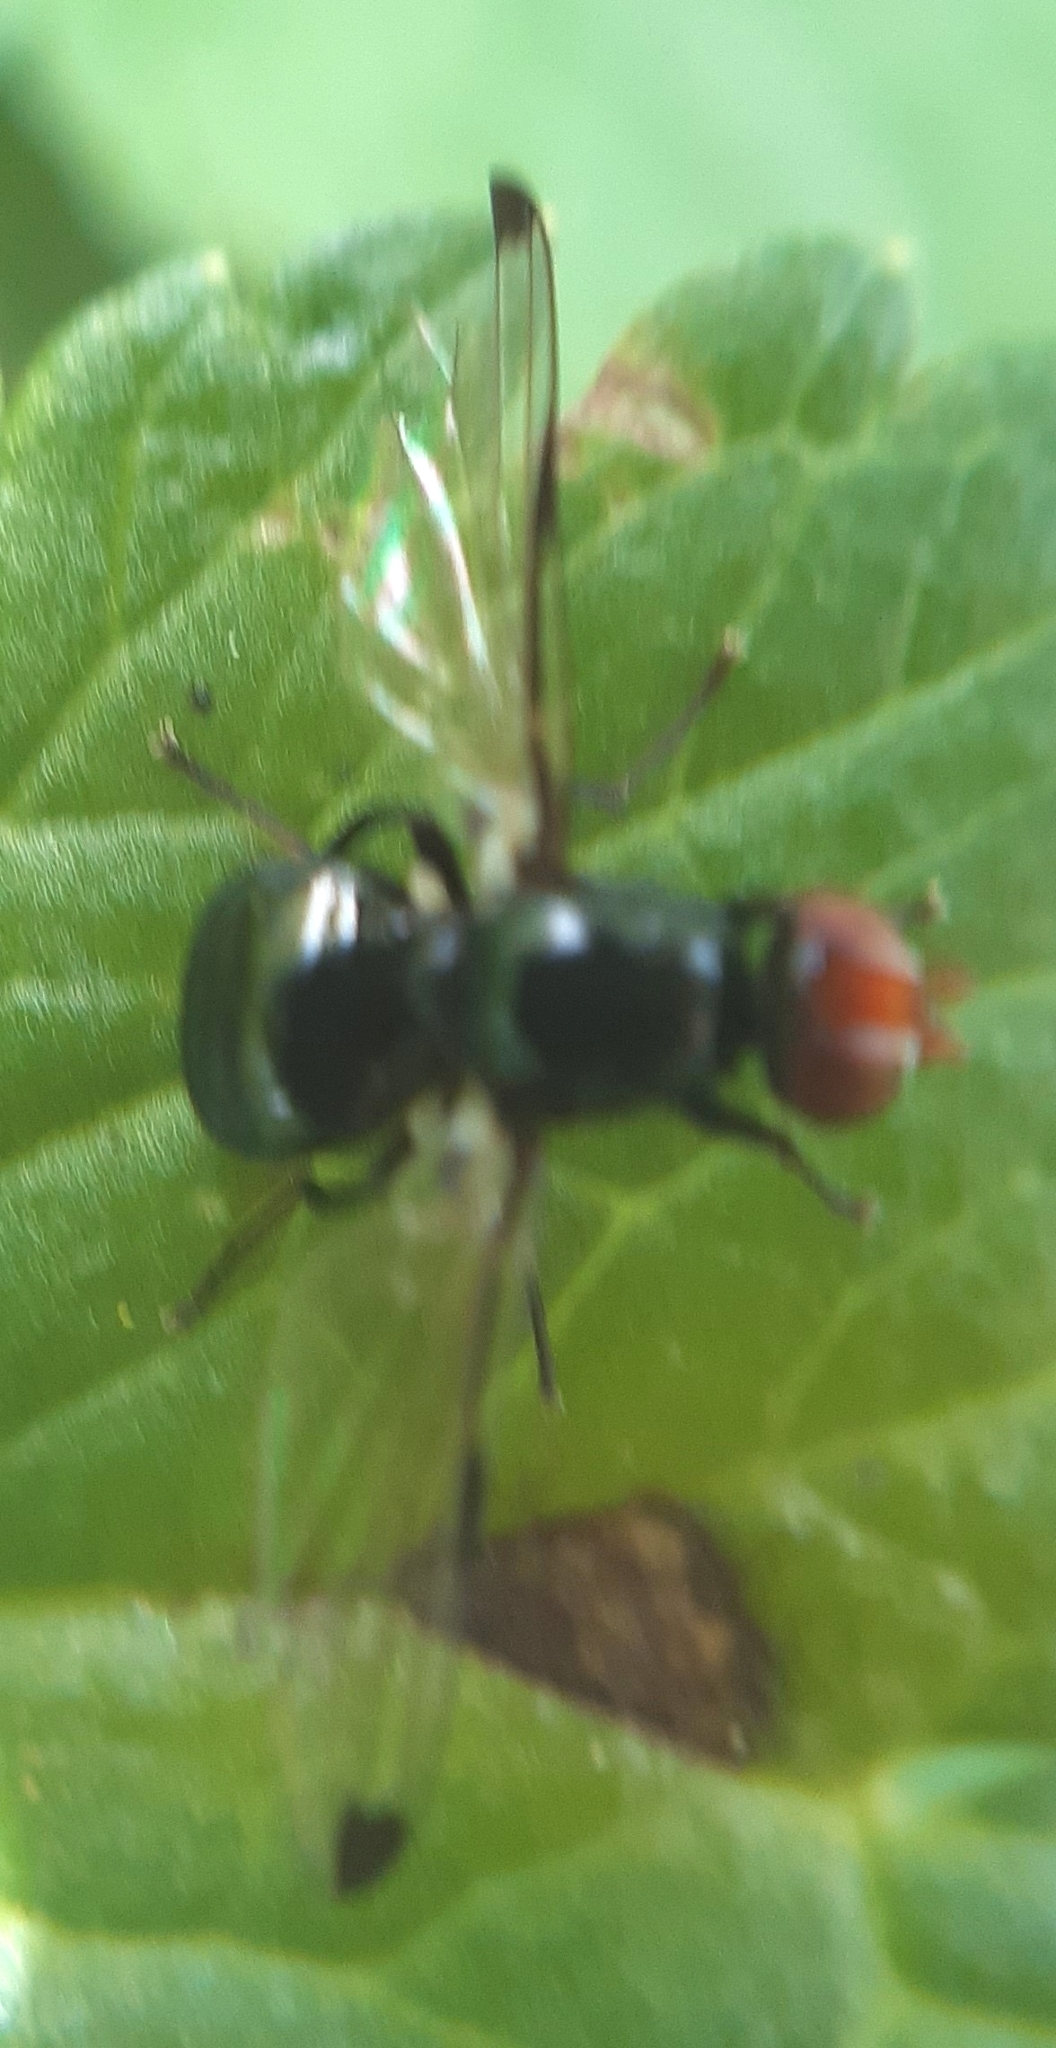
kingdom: Animalia
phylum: Arthropoda
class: Insecta
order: Diptera
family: Ulidiidae
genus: Seioptera
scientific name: Seioptera vibrans
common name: Dark-tipped wingwaver
